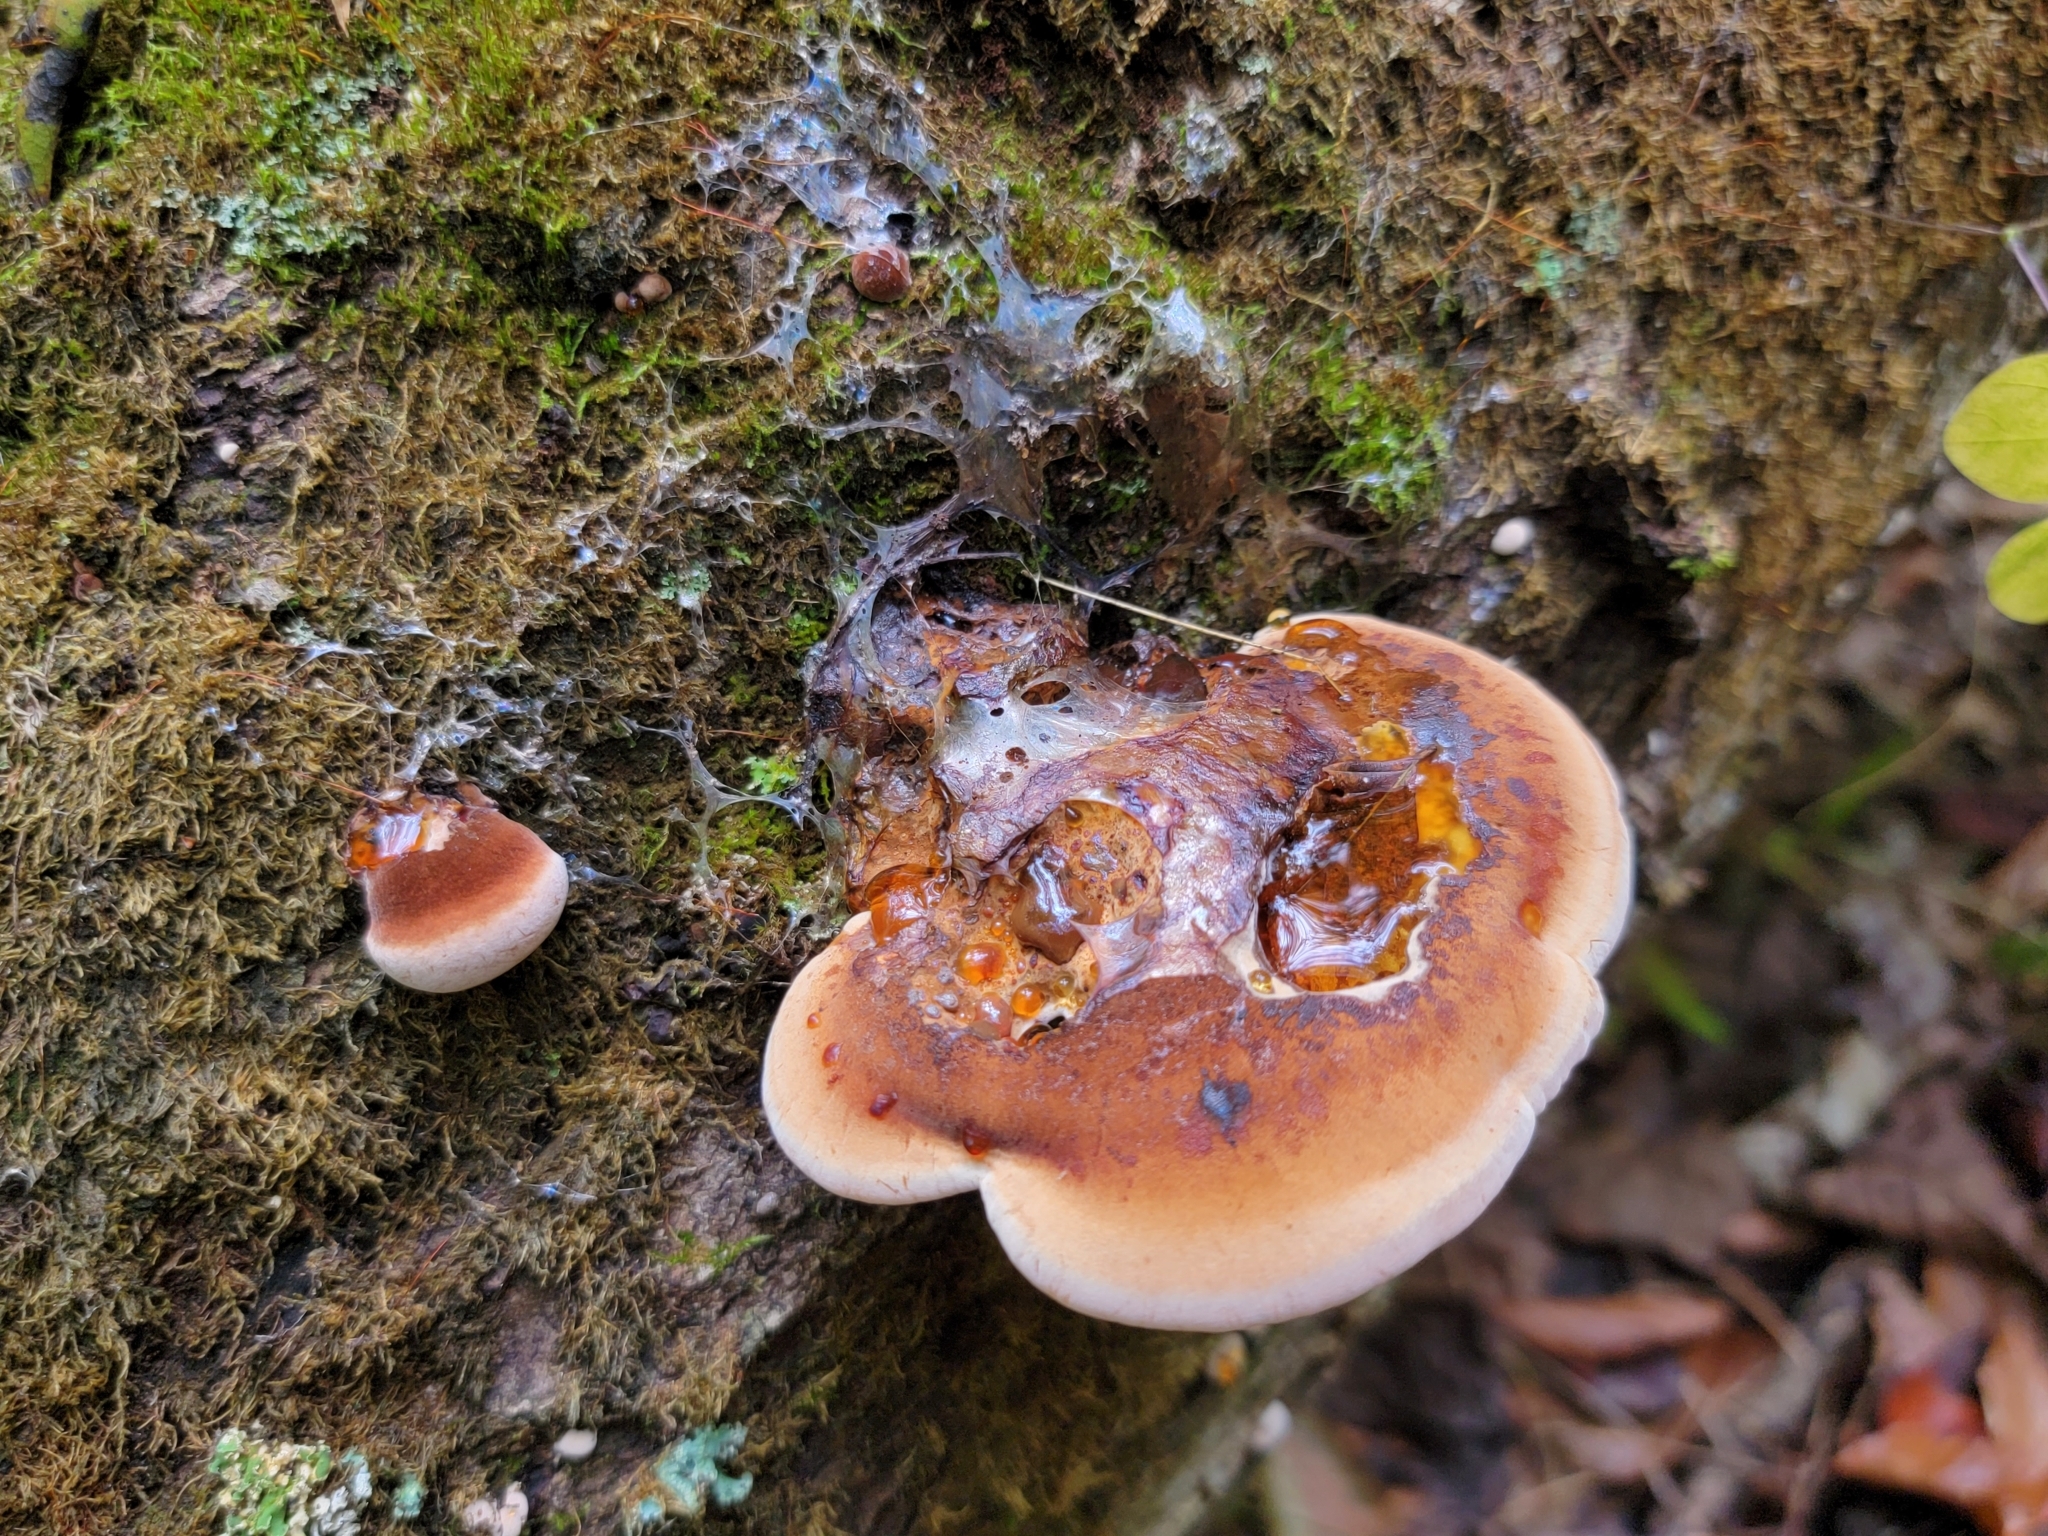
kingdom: Fungi
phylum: Basidiomycota
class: Agaricomycetes
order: Polyporales
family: Ischnodermataceae
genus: Ischnoderma
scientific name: Ischnoderma resinosum
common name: Resinous polypore
